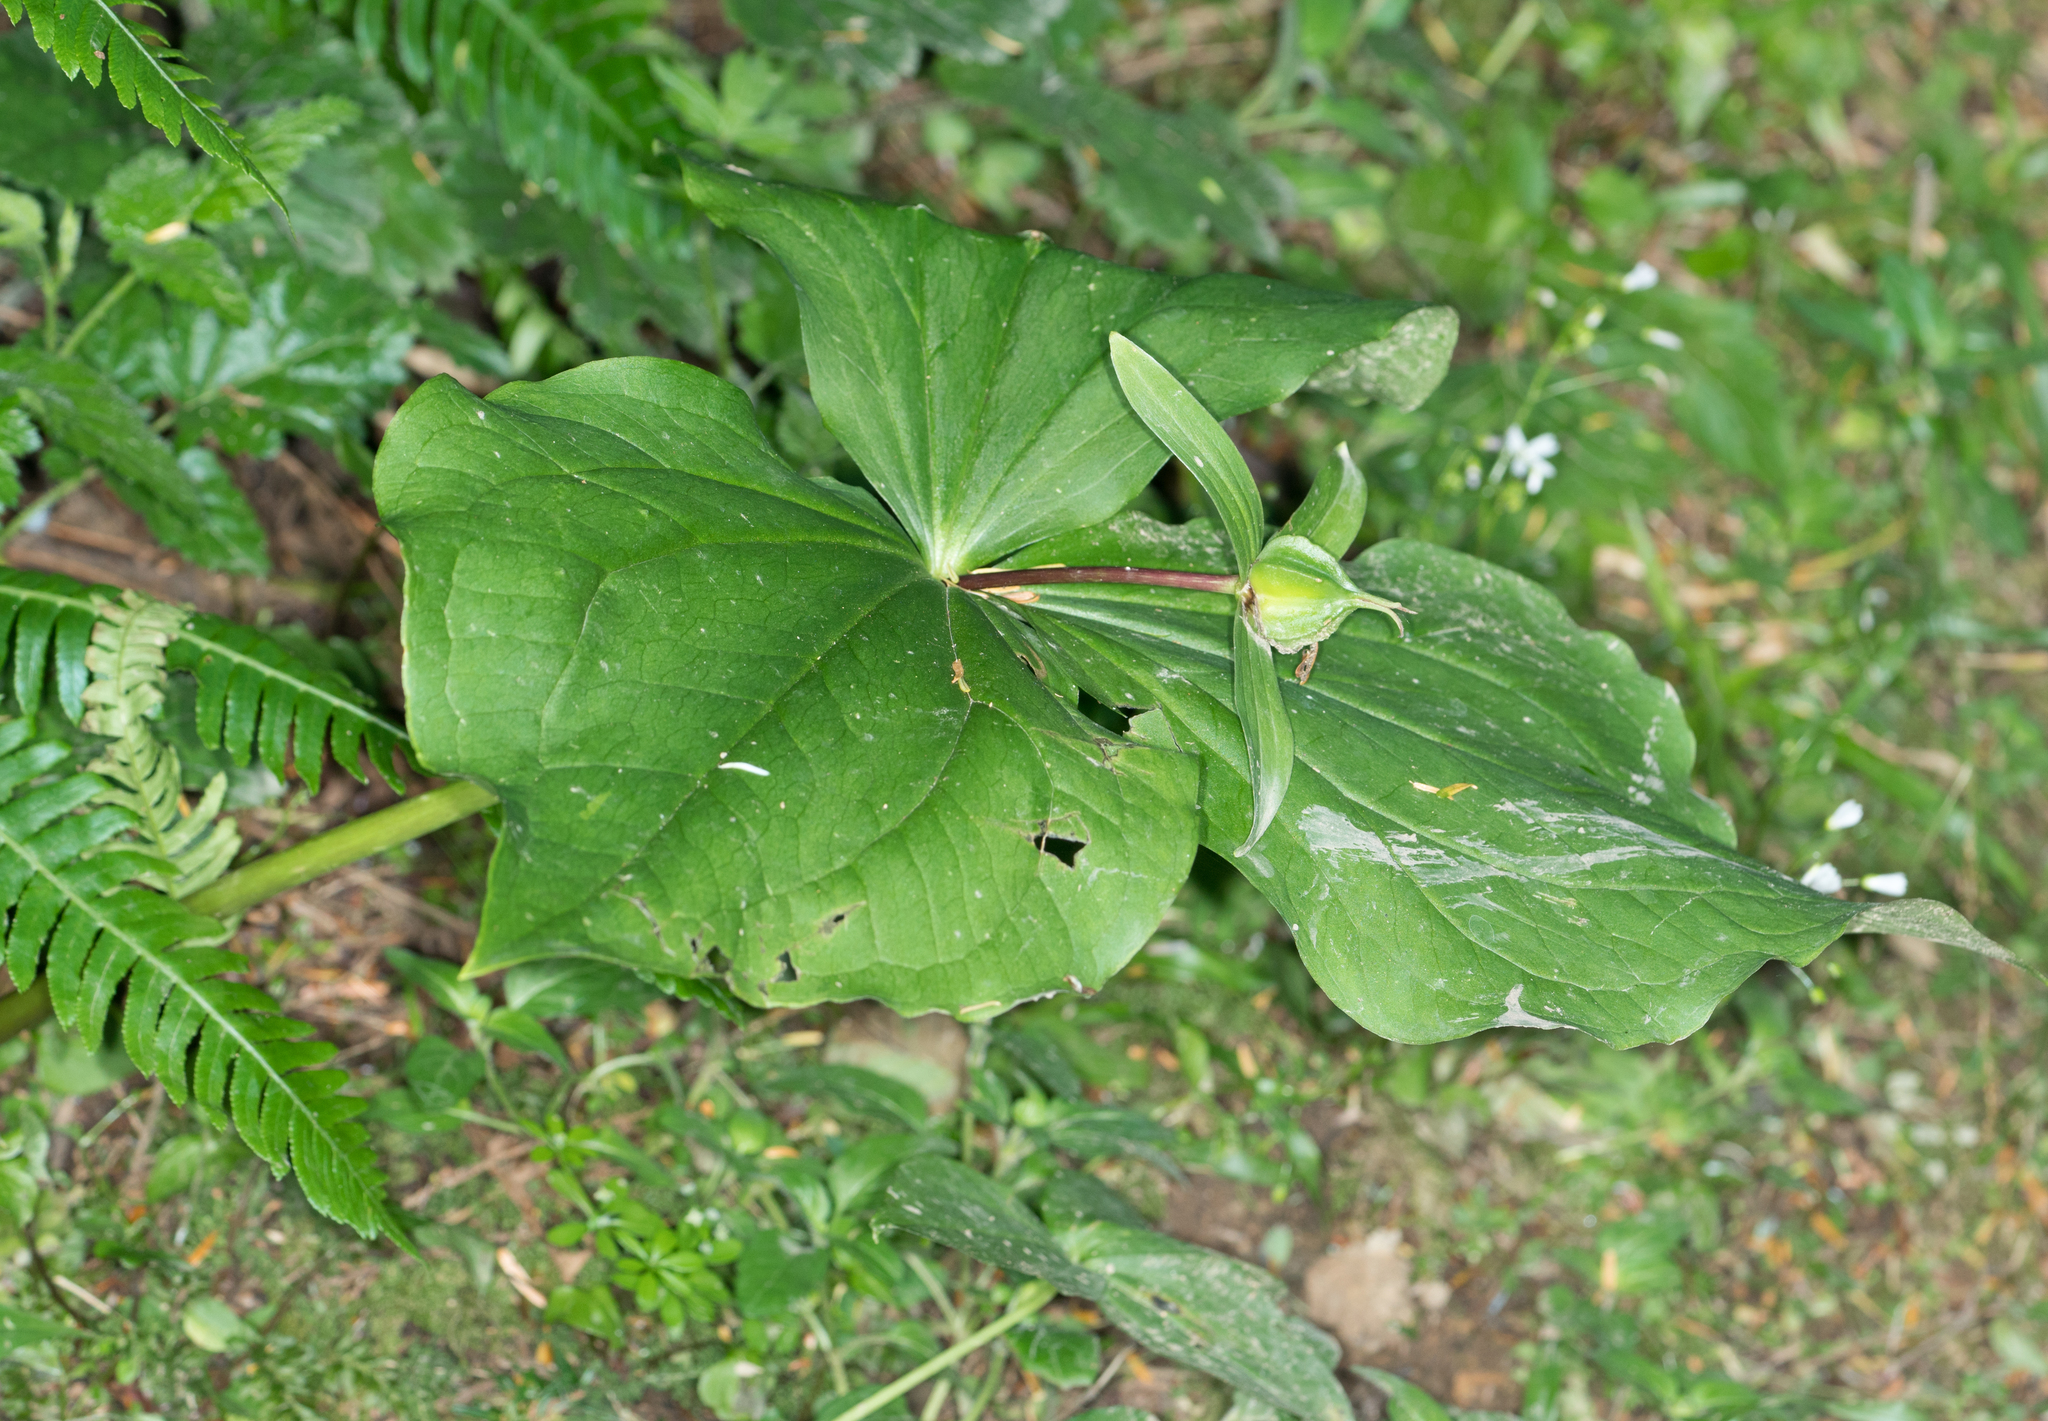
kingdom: Plantae
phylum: Tracheophyta
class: Liliopsida
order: Liliales
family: Melanthiaceae
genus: Trillium
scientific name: Trillium ovatum
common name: Pacific trillium
